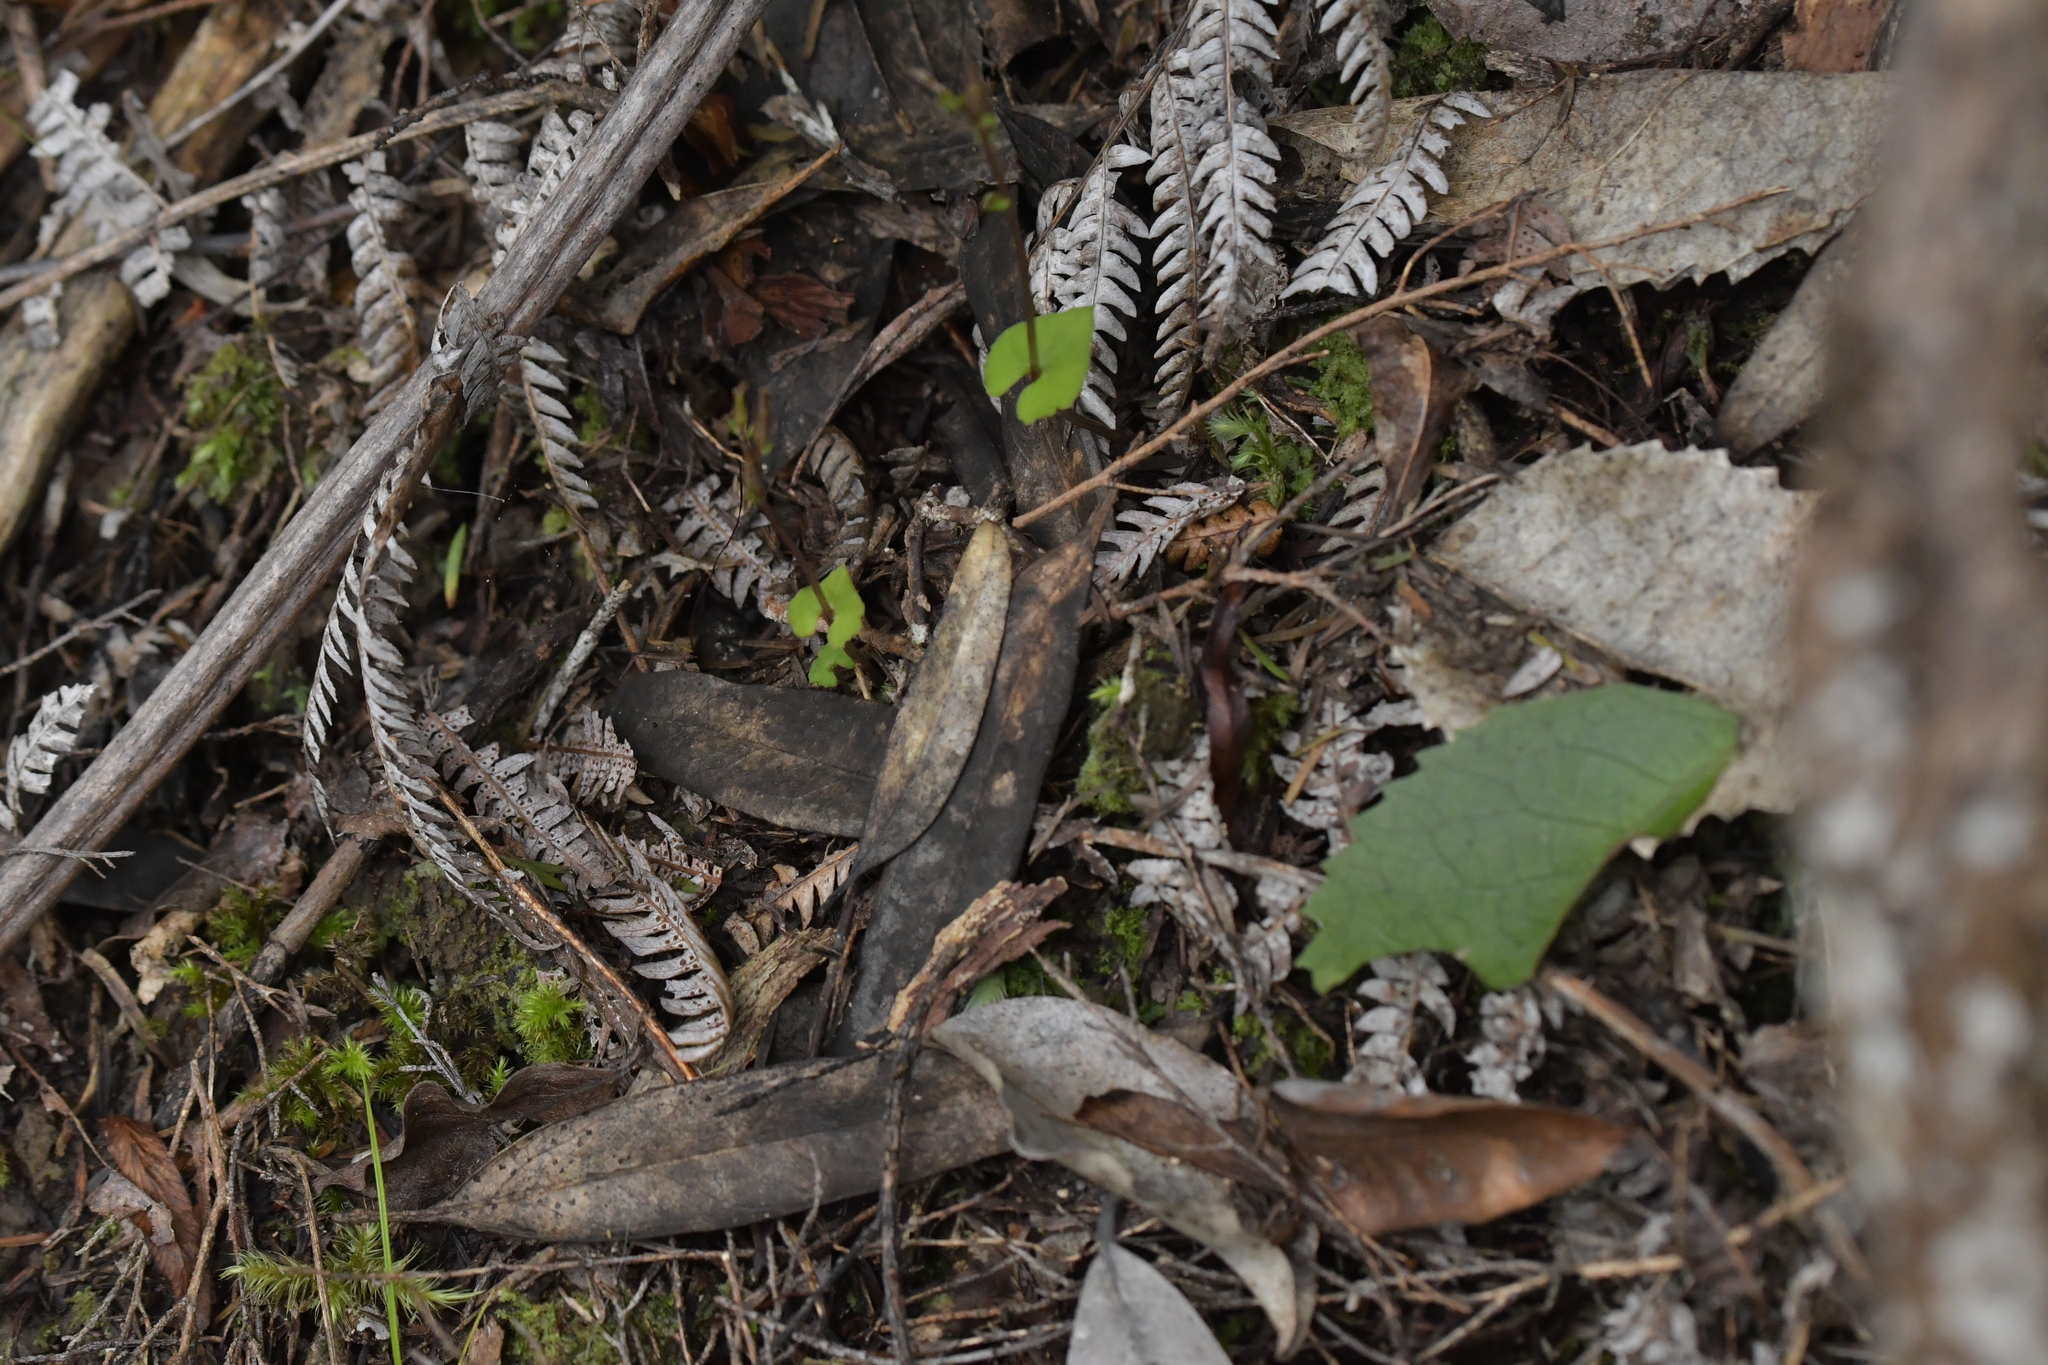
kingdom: Plantae
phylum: Tracheophyta
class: Liliopsida
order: Asparagales
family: Orchidaceae
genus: Acianthus
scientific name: Acianthus sinclairii
